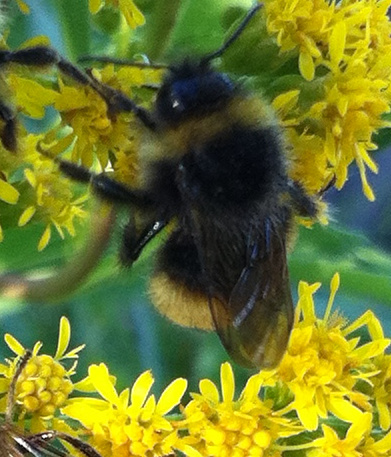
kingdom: Animalia
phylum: Arthropoda
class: Insecta
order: Hymenoptera
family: Apidae
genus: Bombus
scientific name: Bombus terricola
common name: Yellow-banded bumble bee
